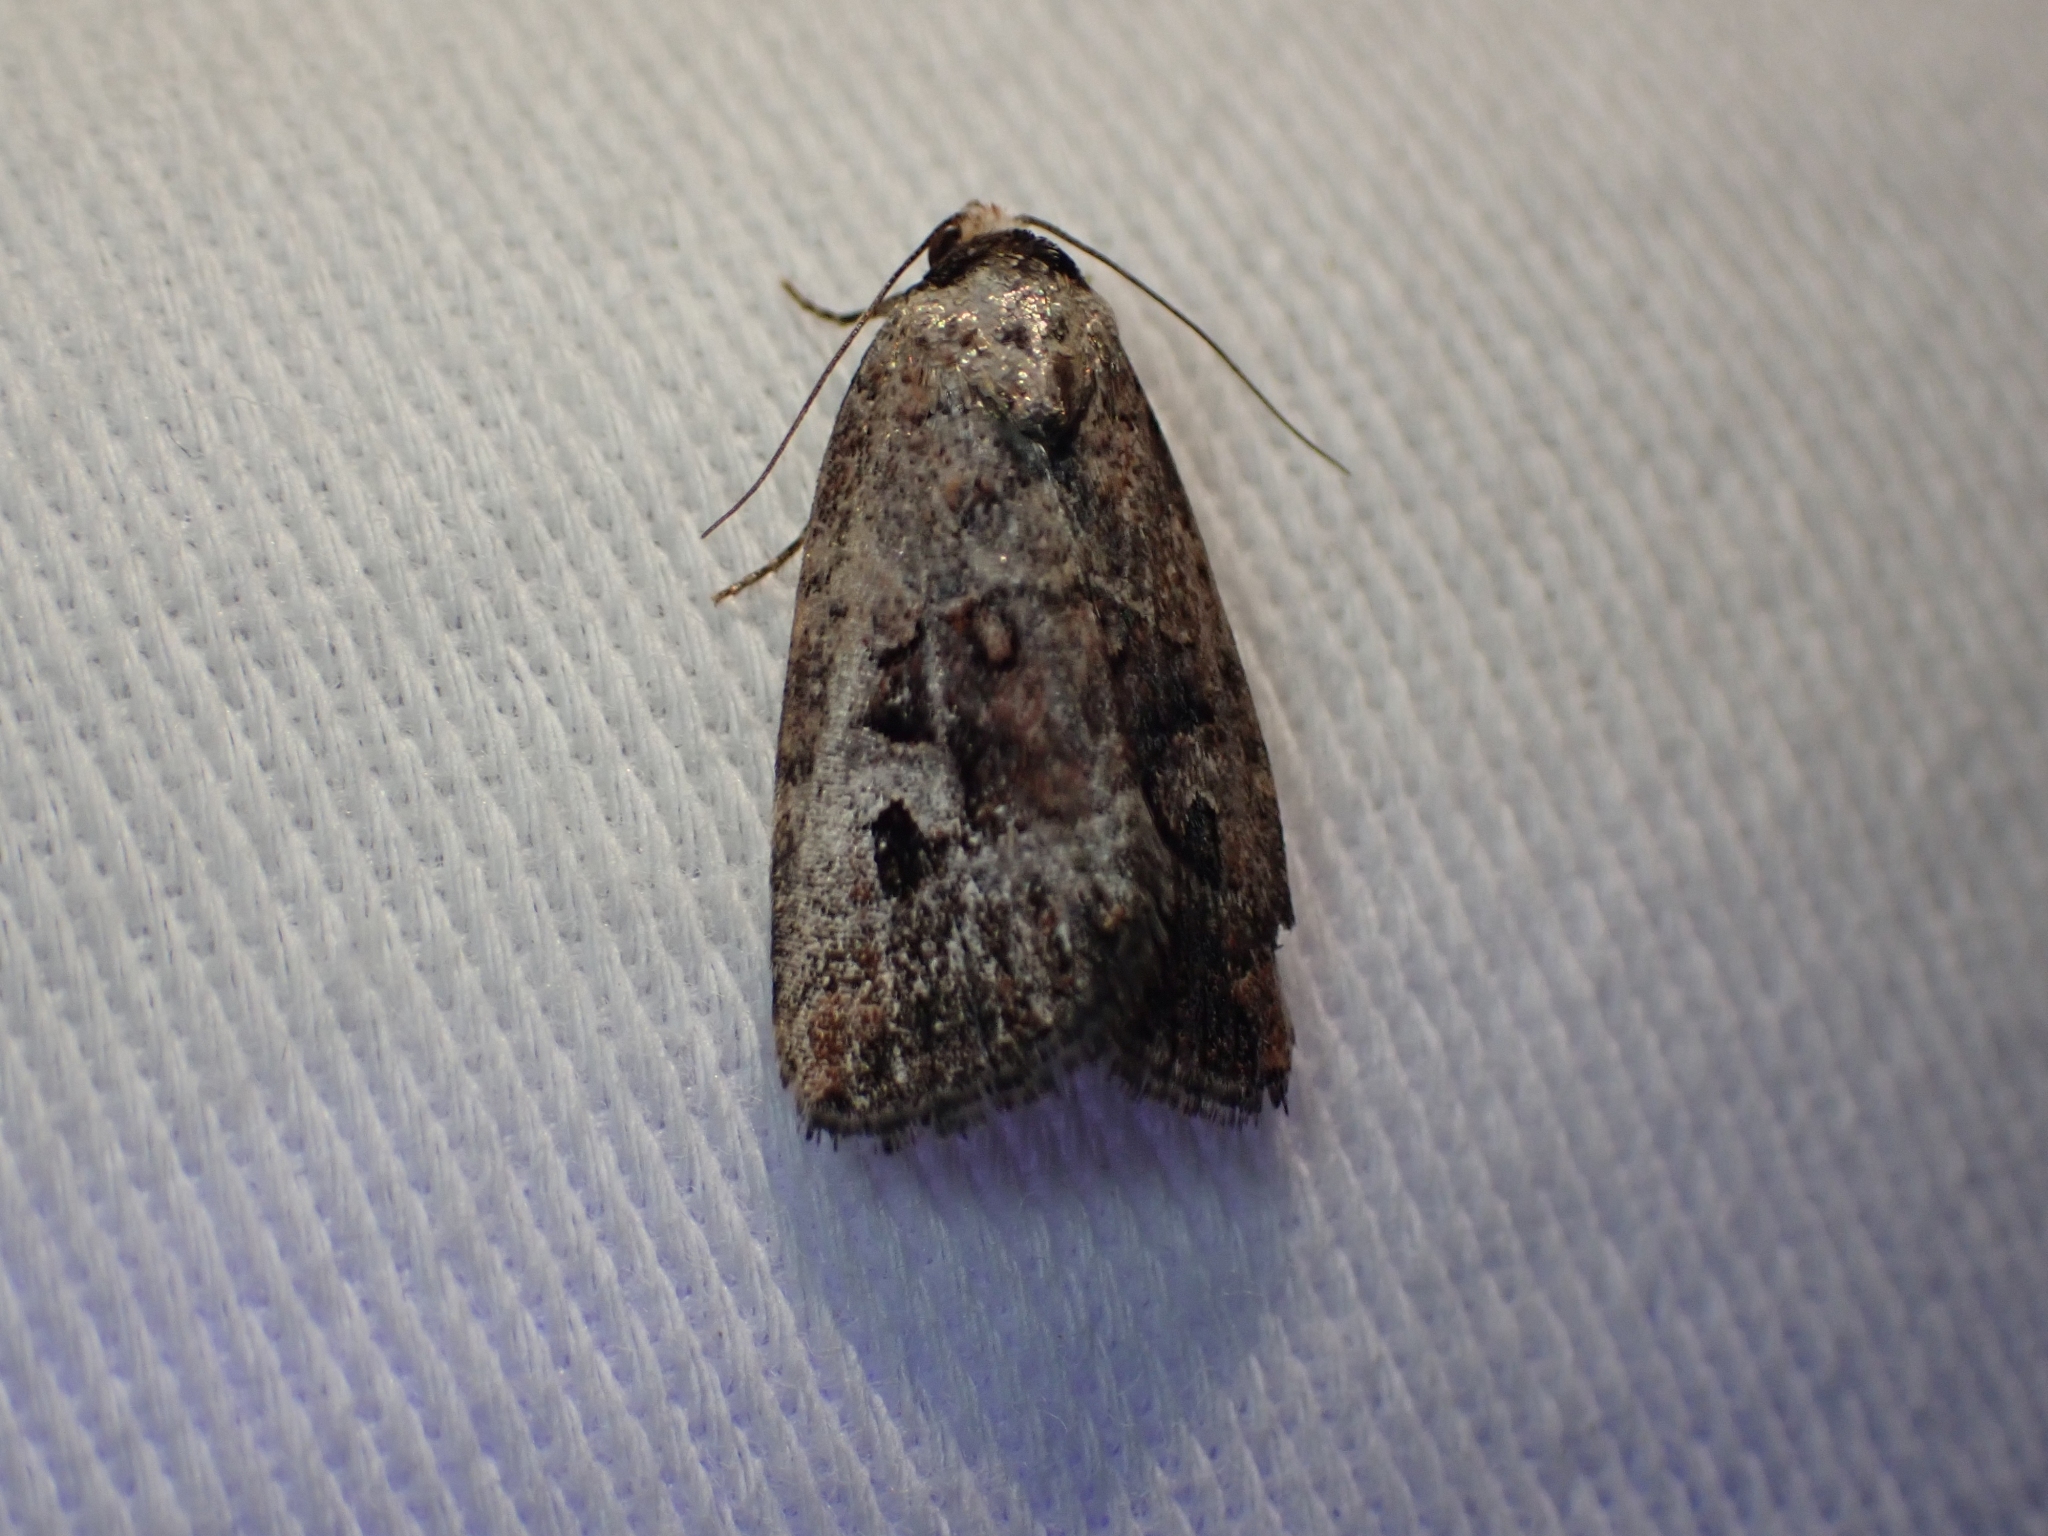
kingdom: Animalia
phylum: Arthropoda
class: Insecta
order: Lepidoptera
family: Noctuidae
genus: Elaphria
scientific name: Elaphria alapallida
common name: Pale-winged midget
